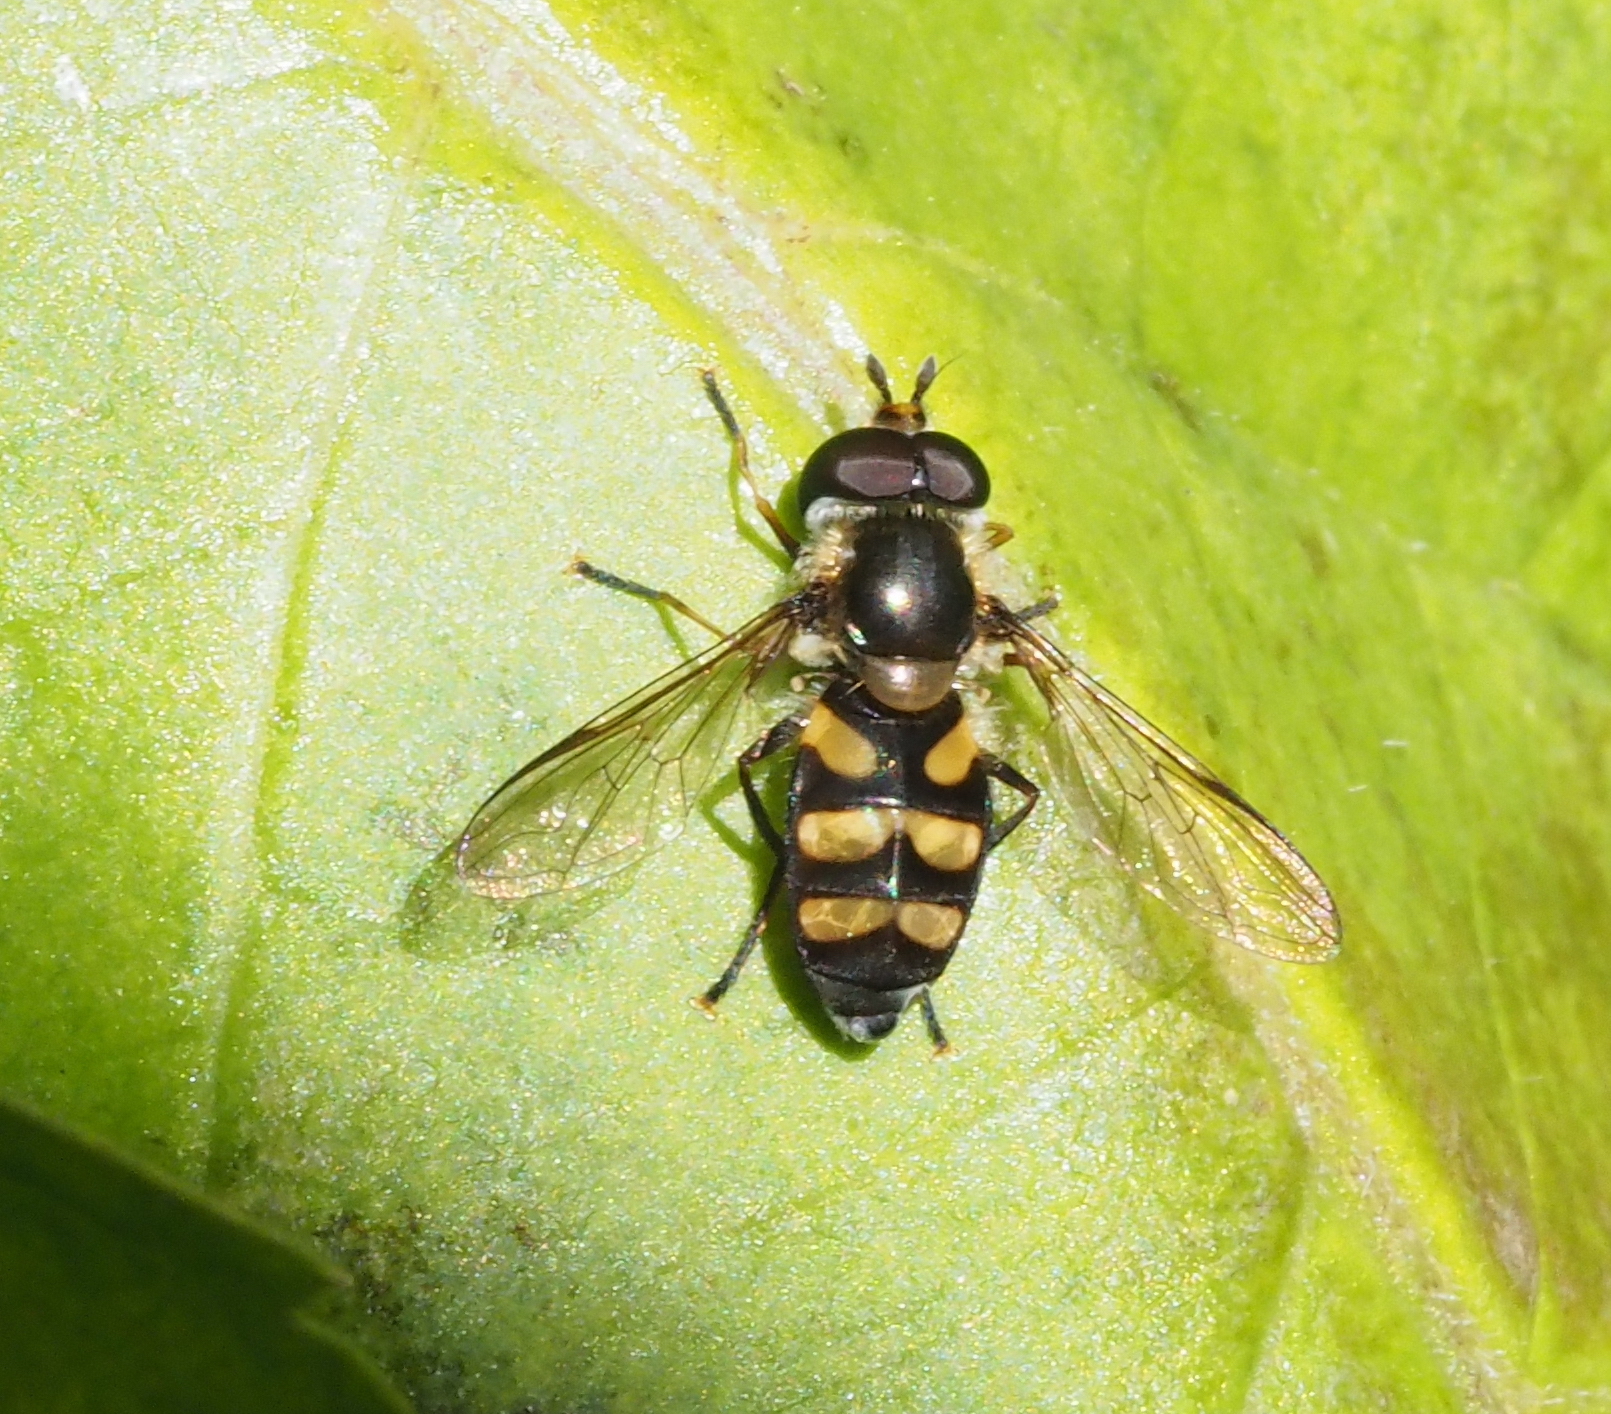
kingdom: Animalia
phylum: Arthropoda
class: Insecta
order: Diptera
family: Syrphidae
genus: Didea
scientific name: Didea fasciata
